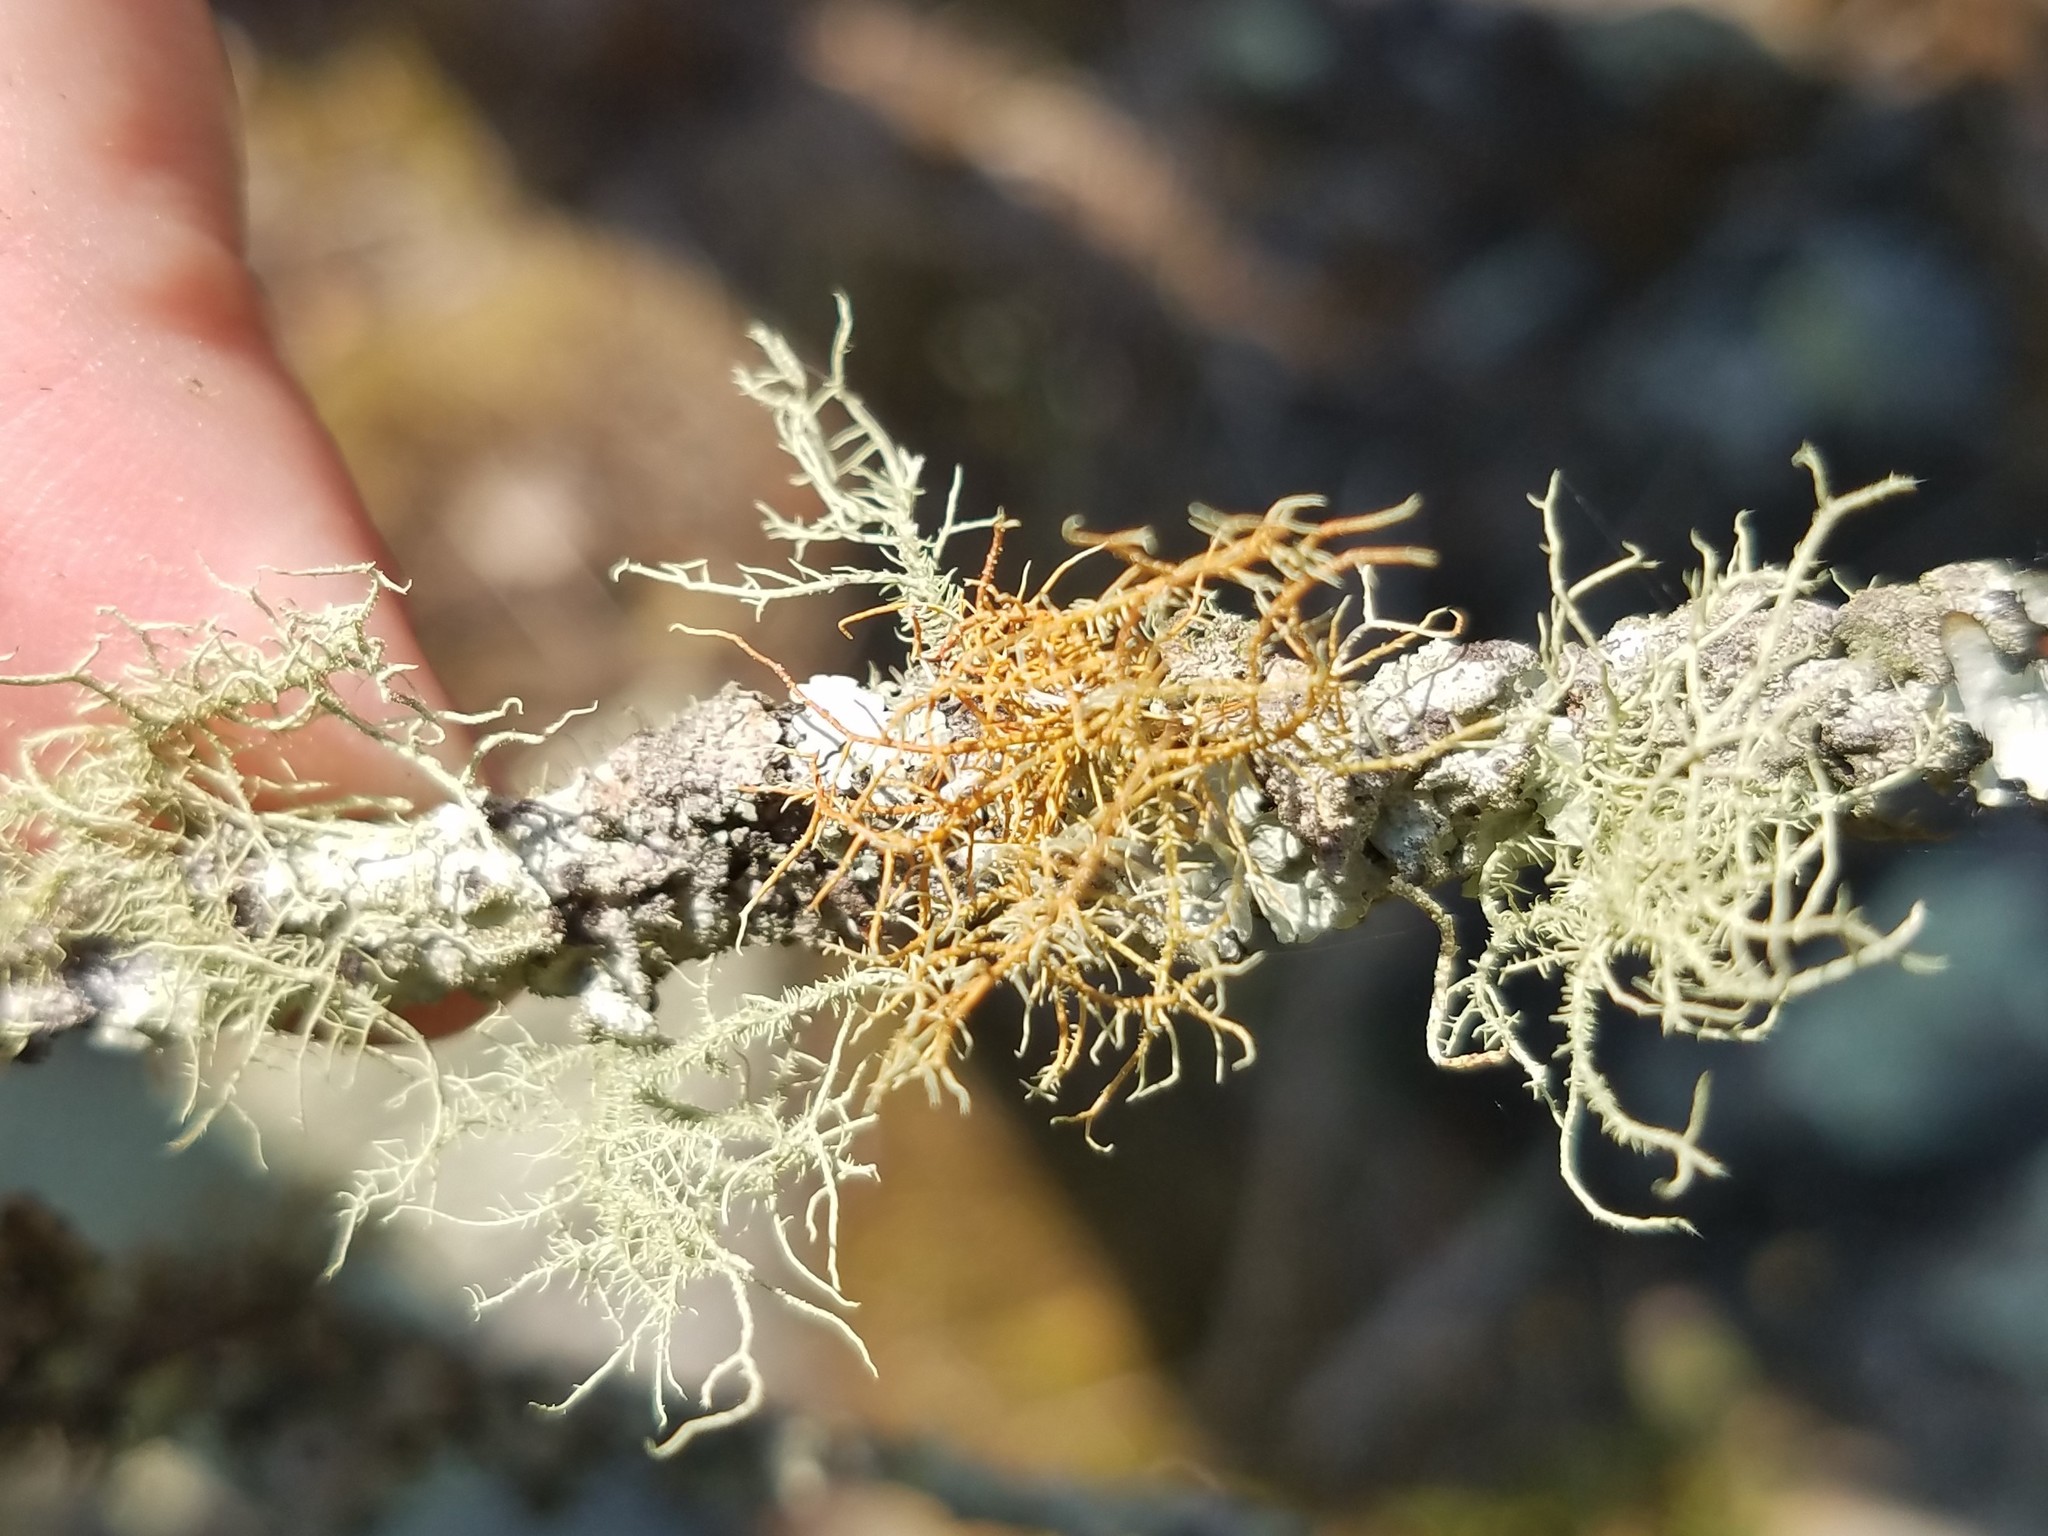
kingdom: Fungi
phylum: Ascomycota
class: Lecanoromycetes
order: Lecanorales
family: Parmeliaceae
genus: Usnea
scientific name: Usnea rubicunda
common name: Red beard lichen
